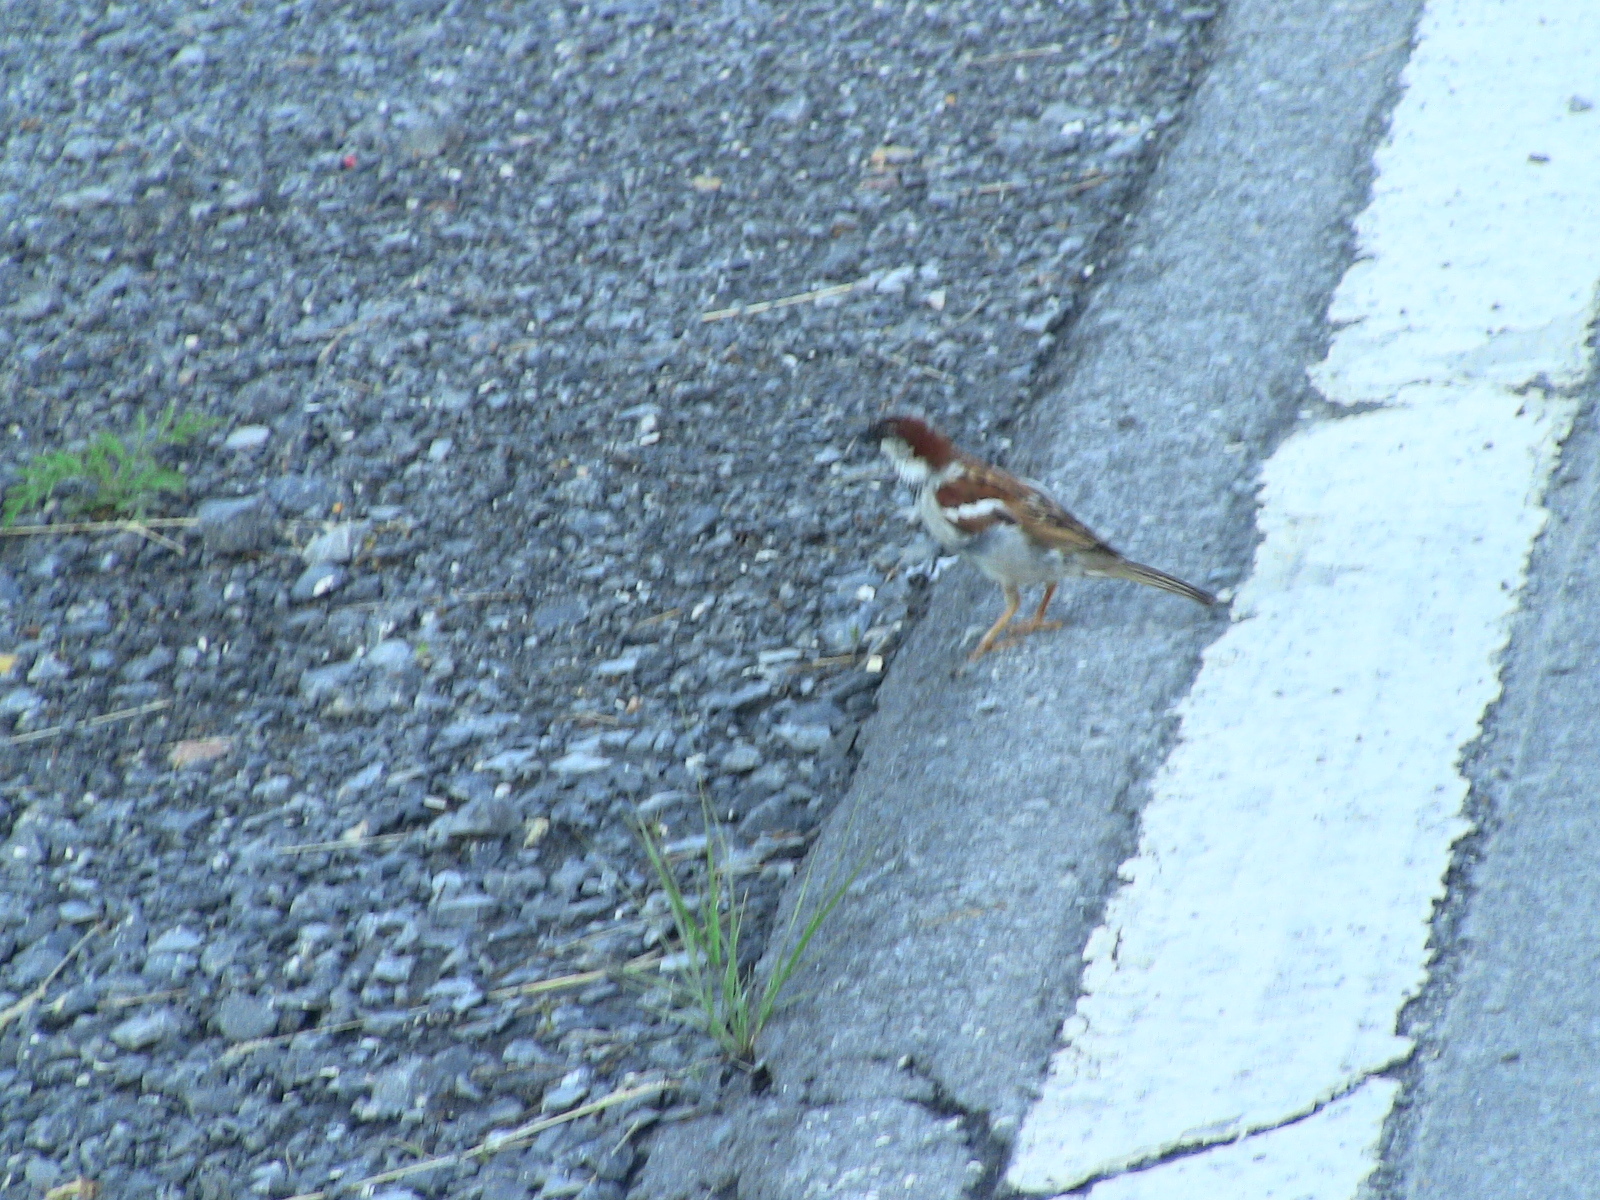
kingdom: Animalia
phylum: Chordata
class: Aves
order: Passeriformes
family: Passeridae
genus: Passer
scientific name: Passer domesticus
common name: House sparrow
